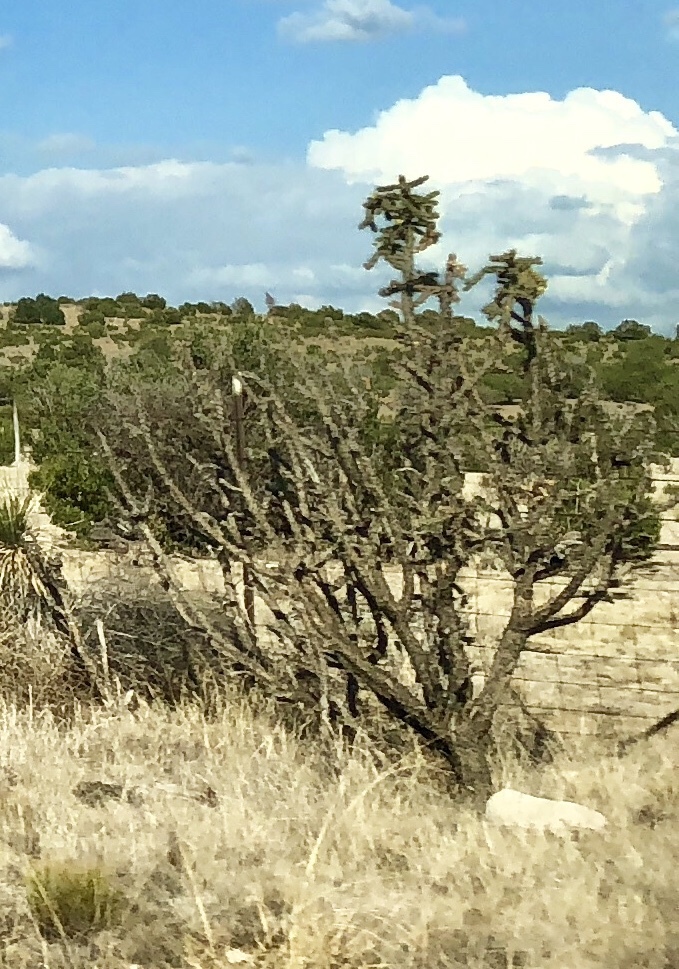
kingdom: Plantae
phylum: Tracheophyta
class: Magnoliopsida
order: Caryophyllales
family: Cactaceae
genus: Cylindropuntia
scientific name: Cylindropuntia imbricata
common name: Candelabrum cactus
